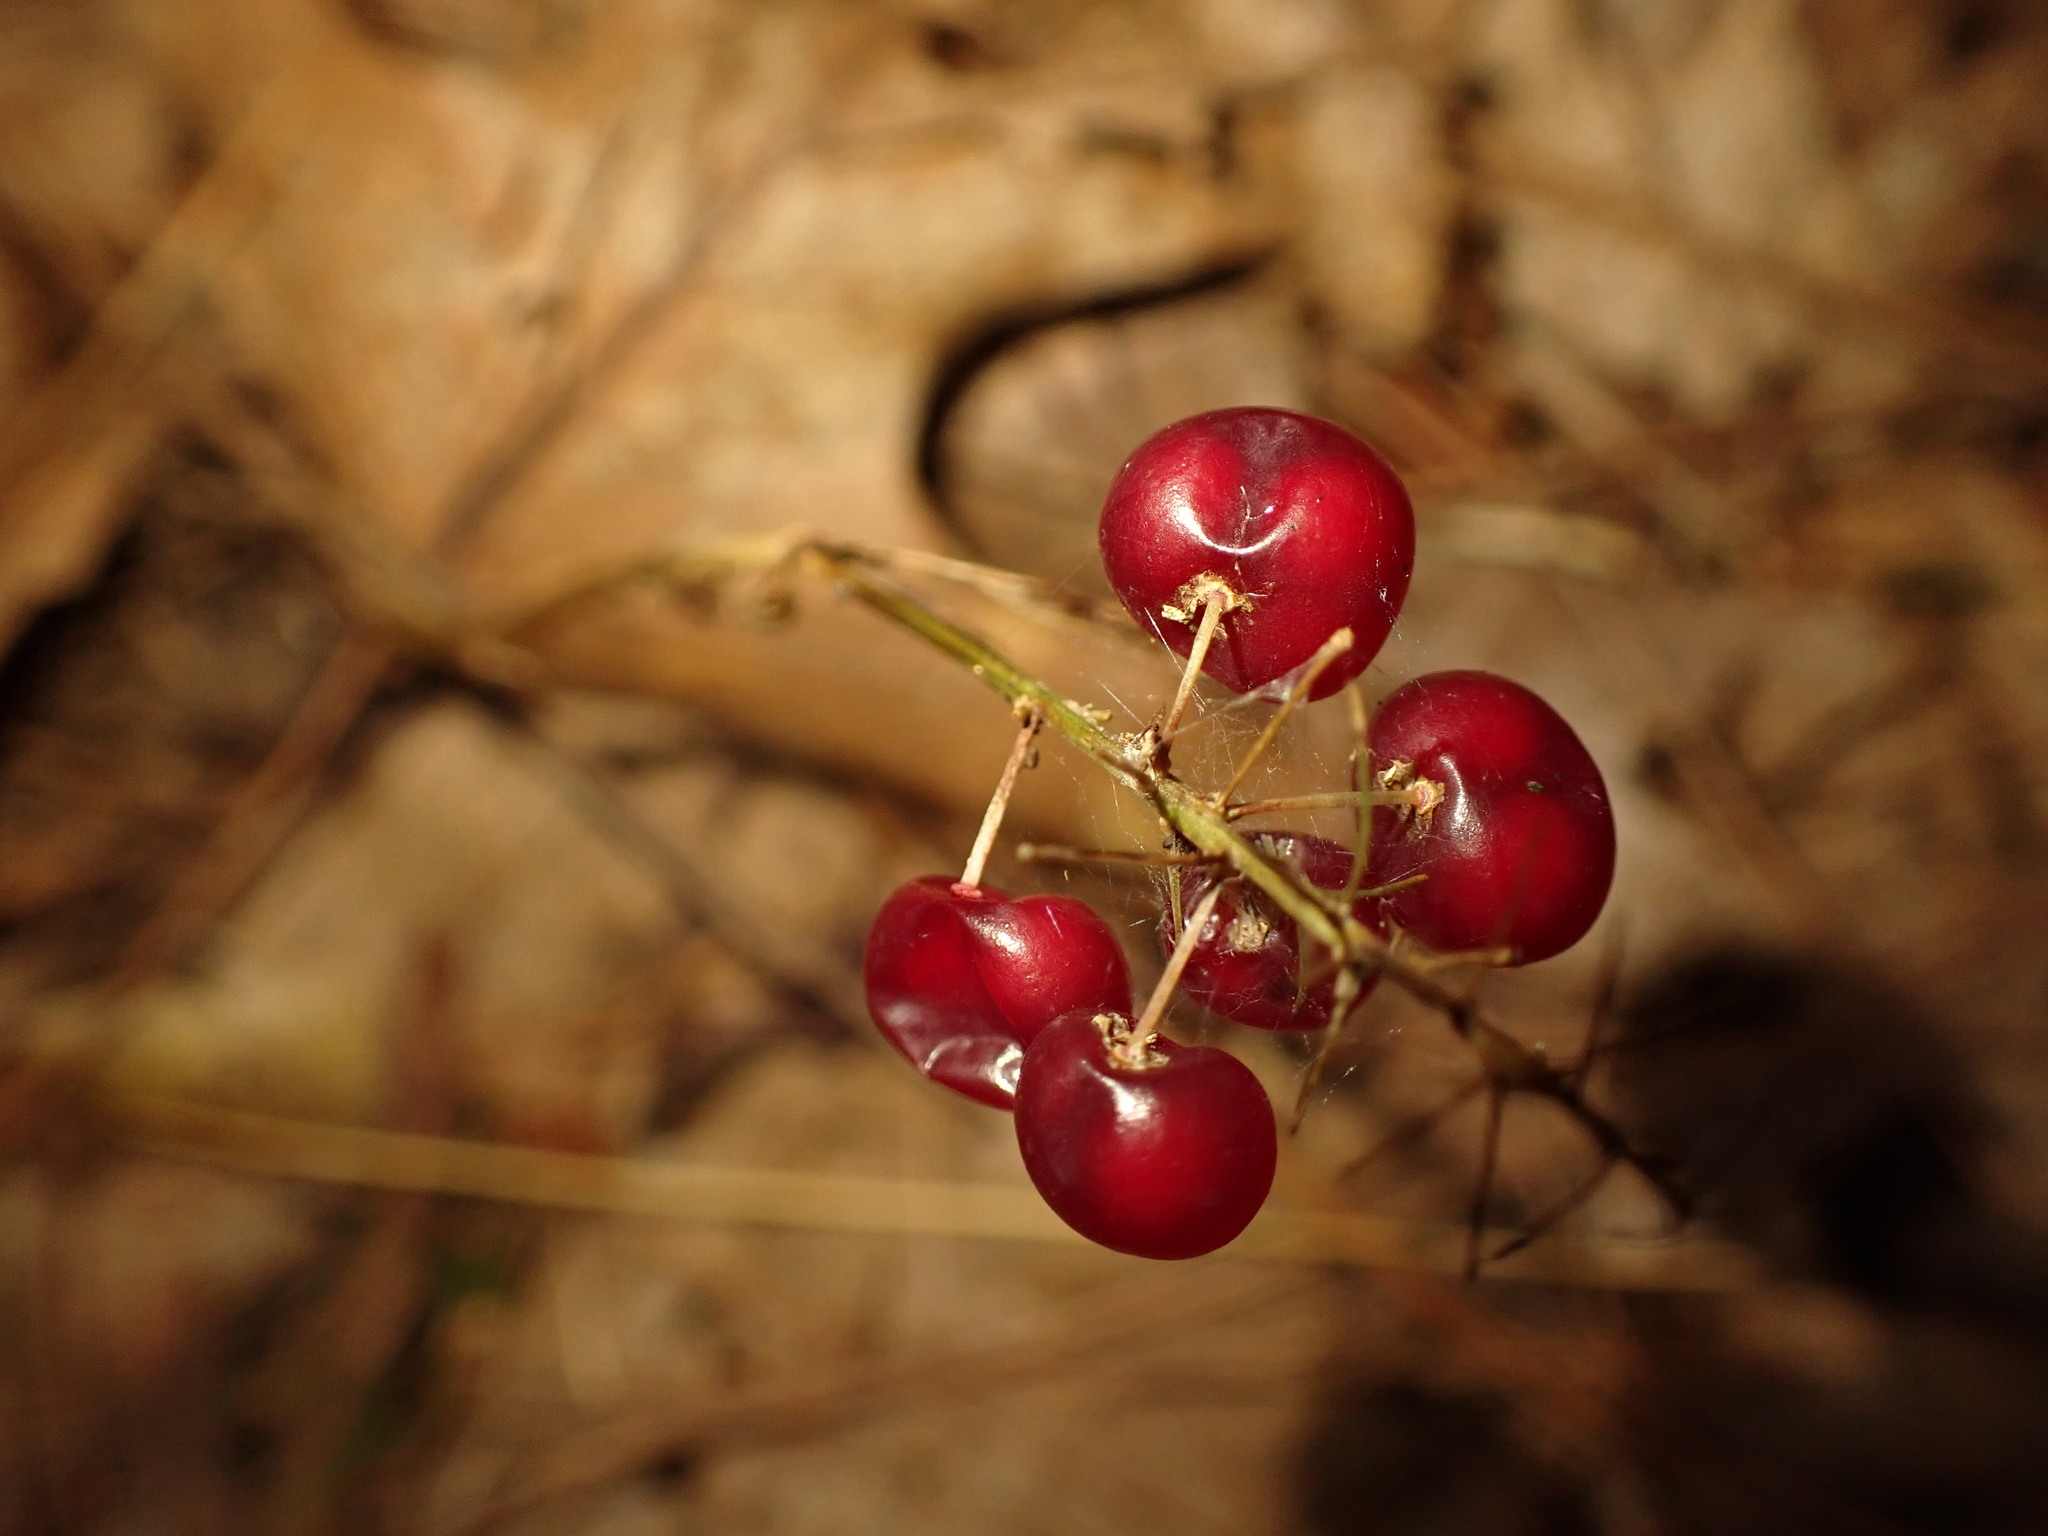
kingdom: Plantae
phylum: Tracheophyta
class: Liliopsida
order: Asparagales
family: Asparagaceae
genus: Maianthemum
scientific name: Maianthemum canadense
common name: False lily-of-the-valley
